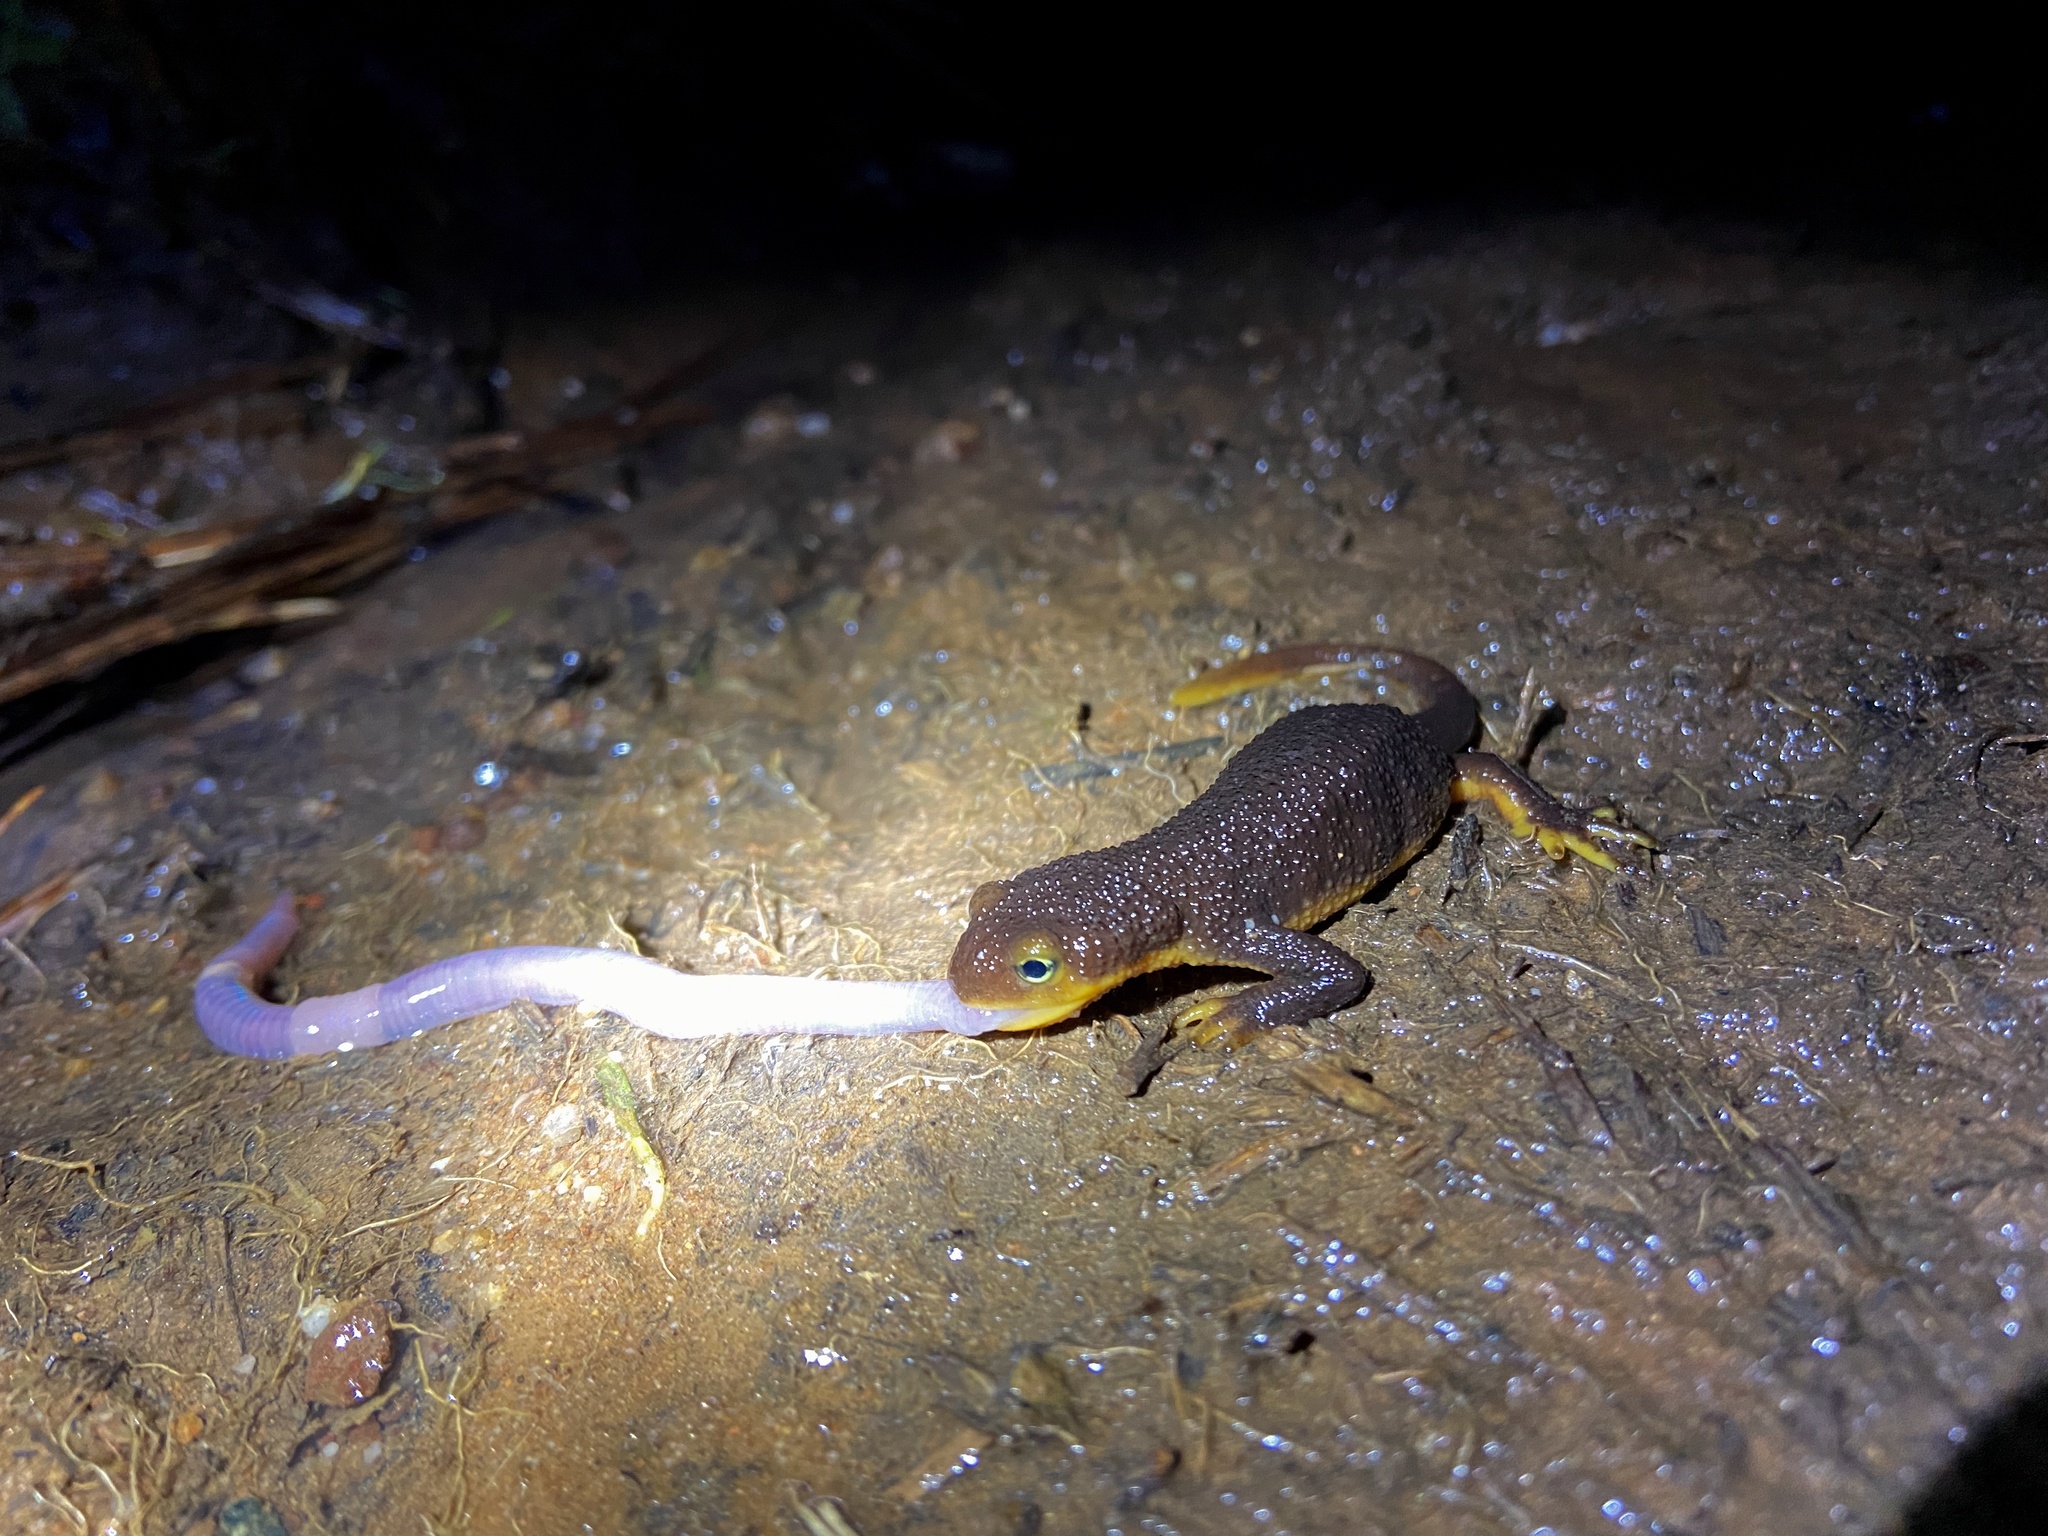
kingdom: Animalia
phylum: Chordata
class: Amphibia
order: Caudata
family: Salamandridae
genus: Taricha
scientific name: Taricha torosa
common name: California newt
